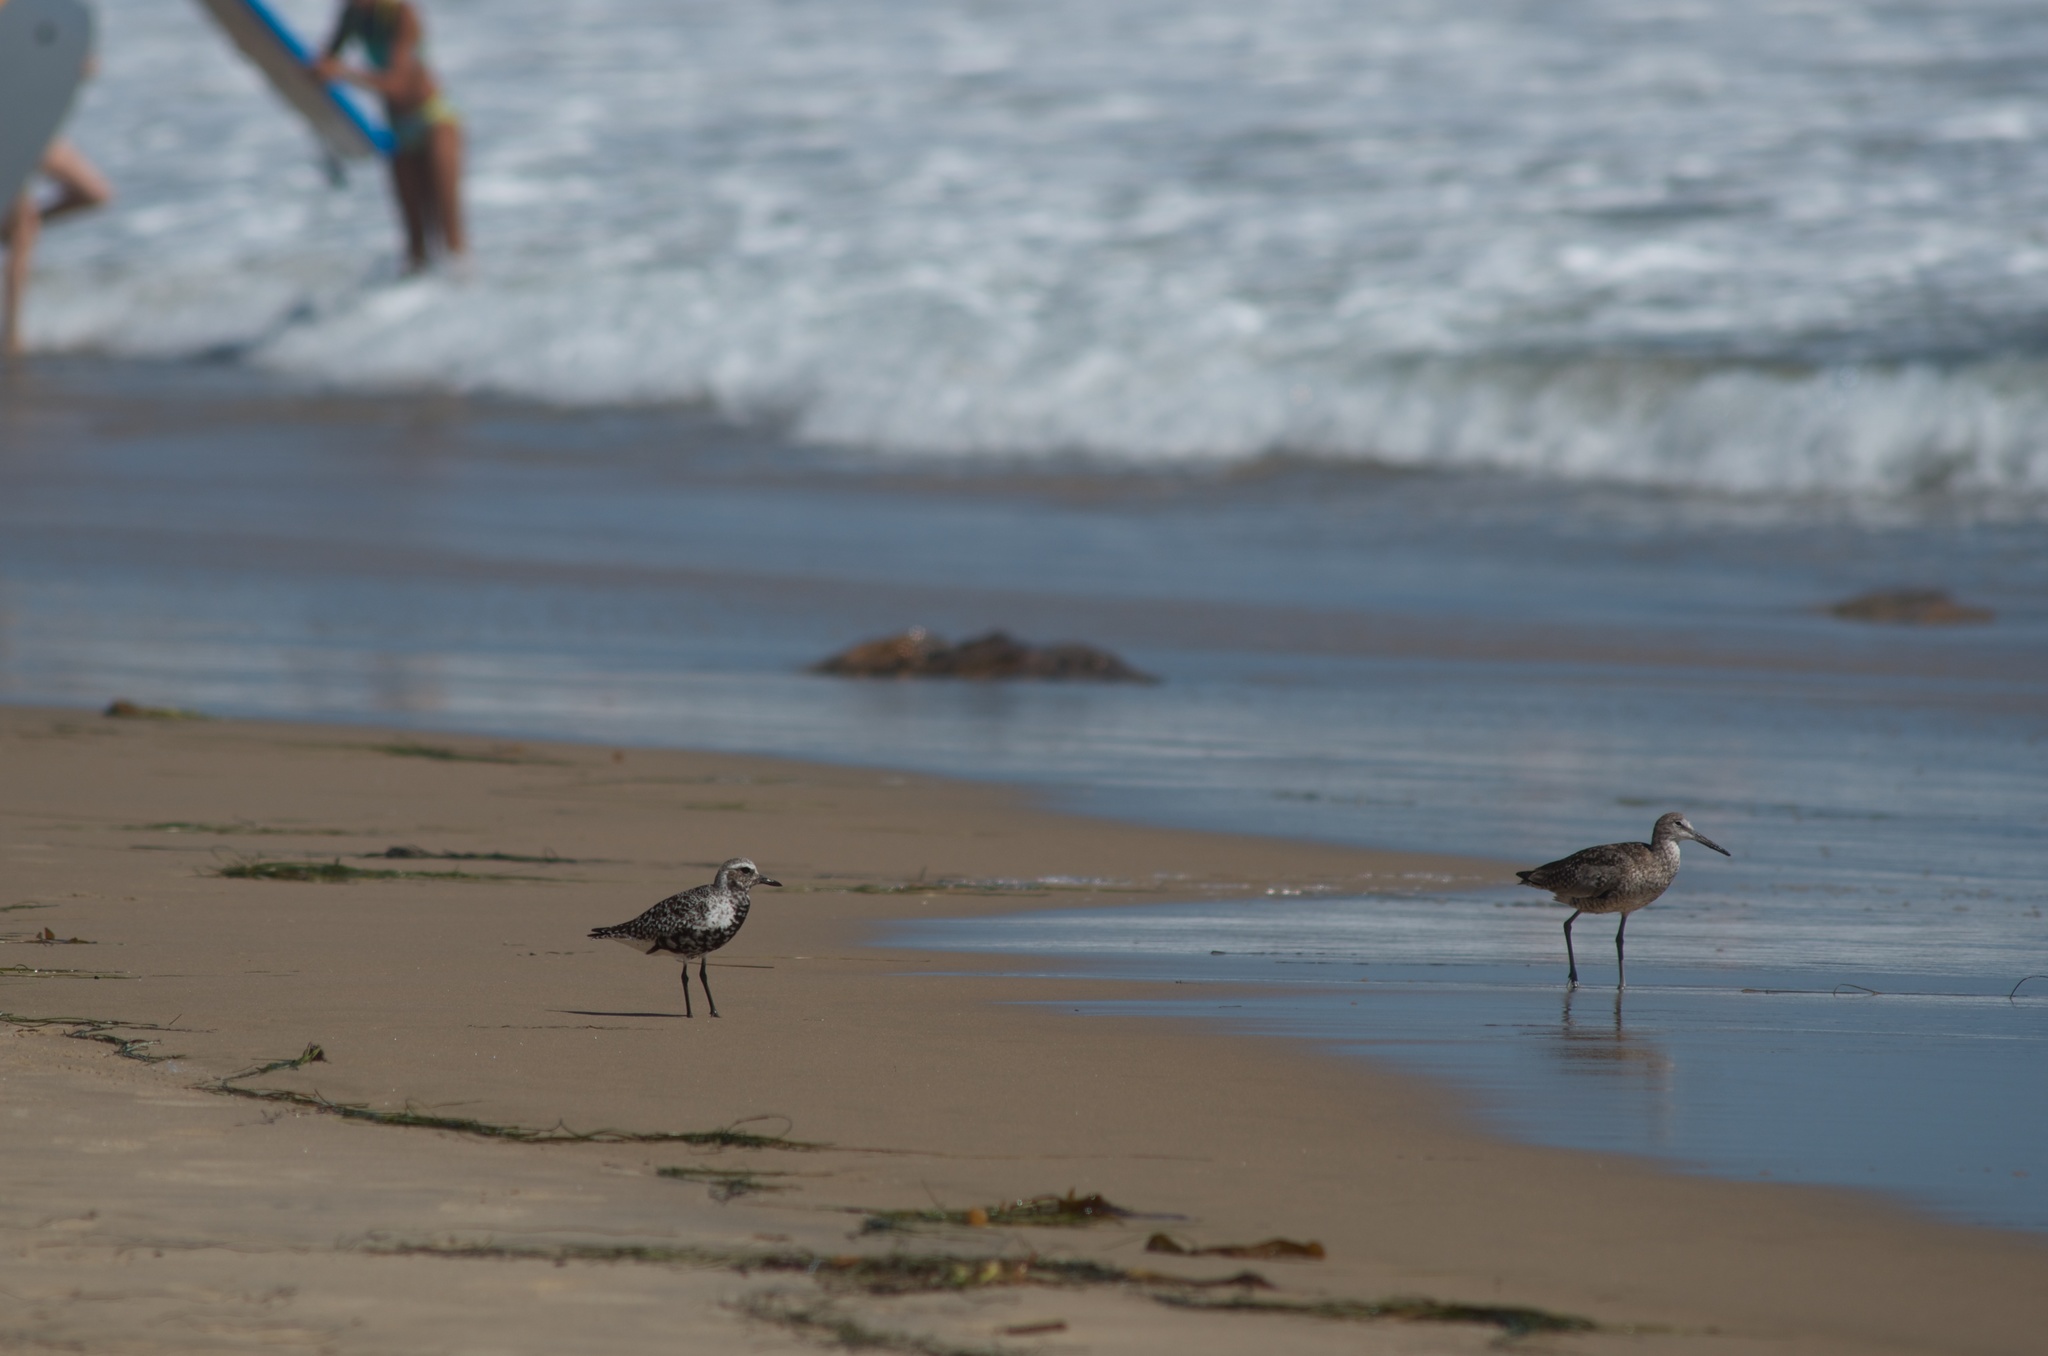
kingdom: Animalia
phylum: Chordata
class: Aves
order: Charadriiformes
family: Charadriidae
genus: Pluvialis
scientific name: Pluvialis squatarola
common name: Grey plover
